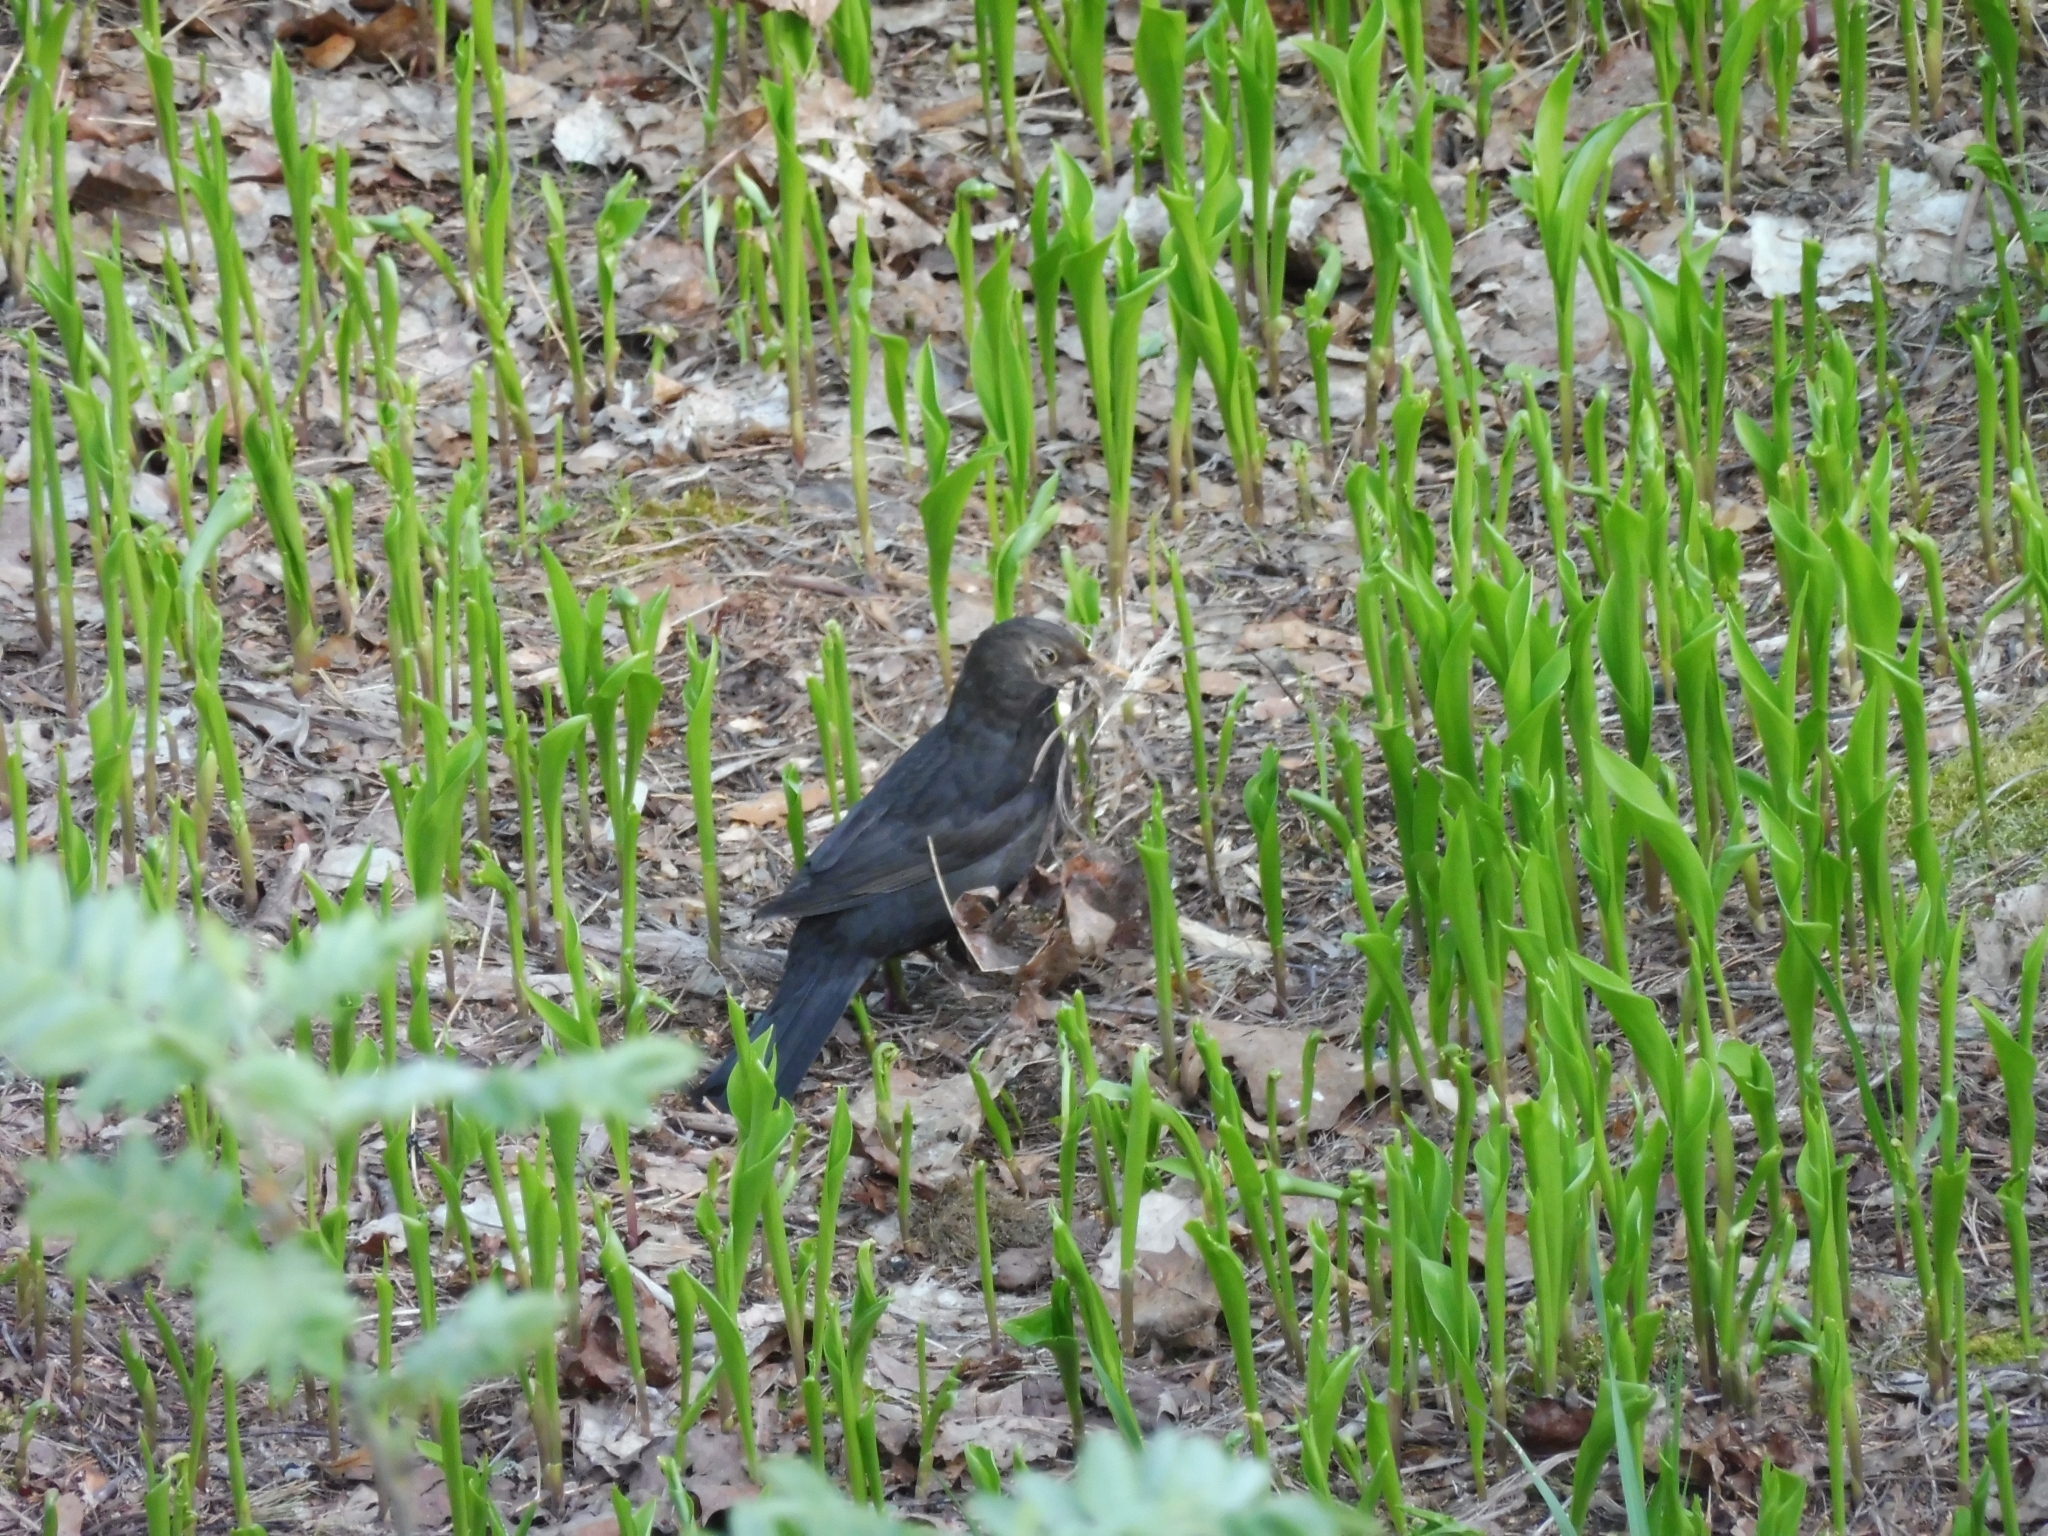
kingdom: Animalia
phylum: Chordata
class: Aves
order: Passeriformes
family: Turdidae
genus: Turdus
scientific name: Turdus merula
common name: Common blackbird
